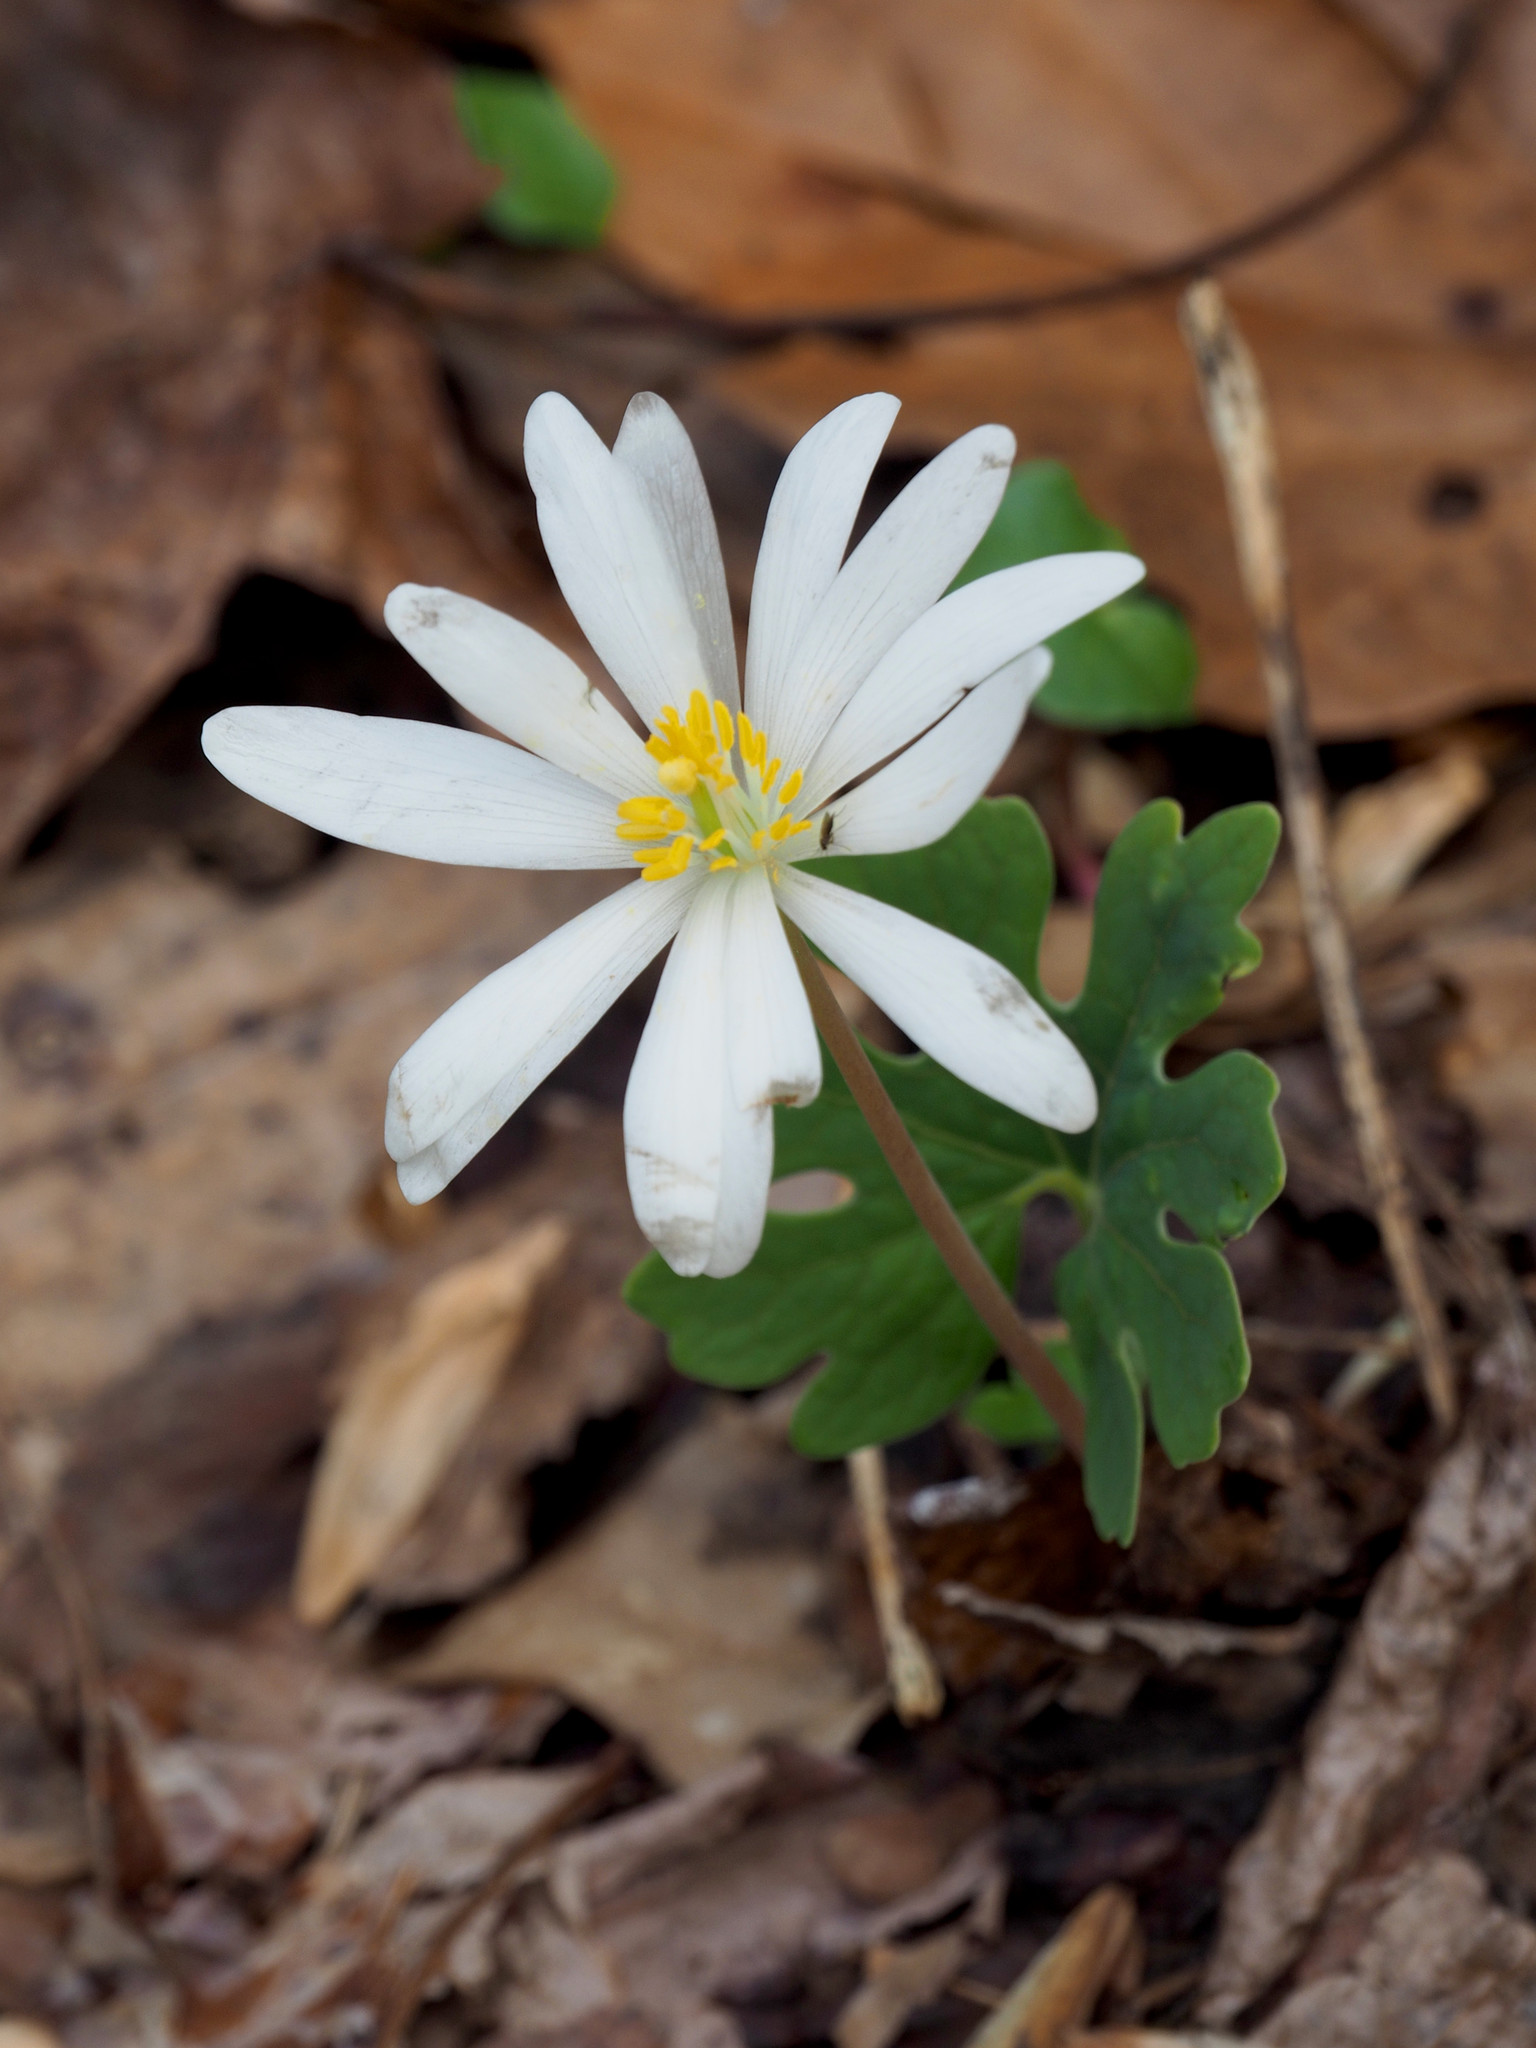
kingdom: Plantae
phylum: Tracheophyta
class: Magnoliopsida
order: Ranunculales
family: Papaveraceae
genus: Sanguinaria
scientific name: Sanguinaria canadensis
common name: Bloodroot
